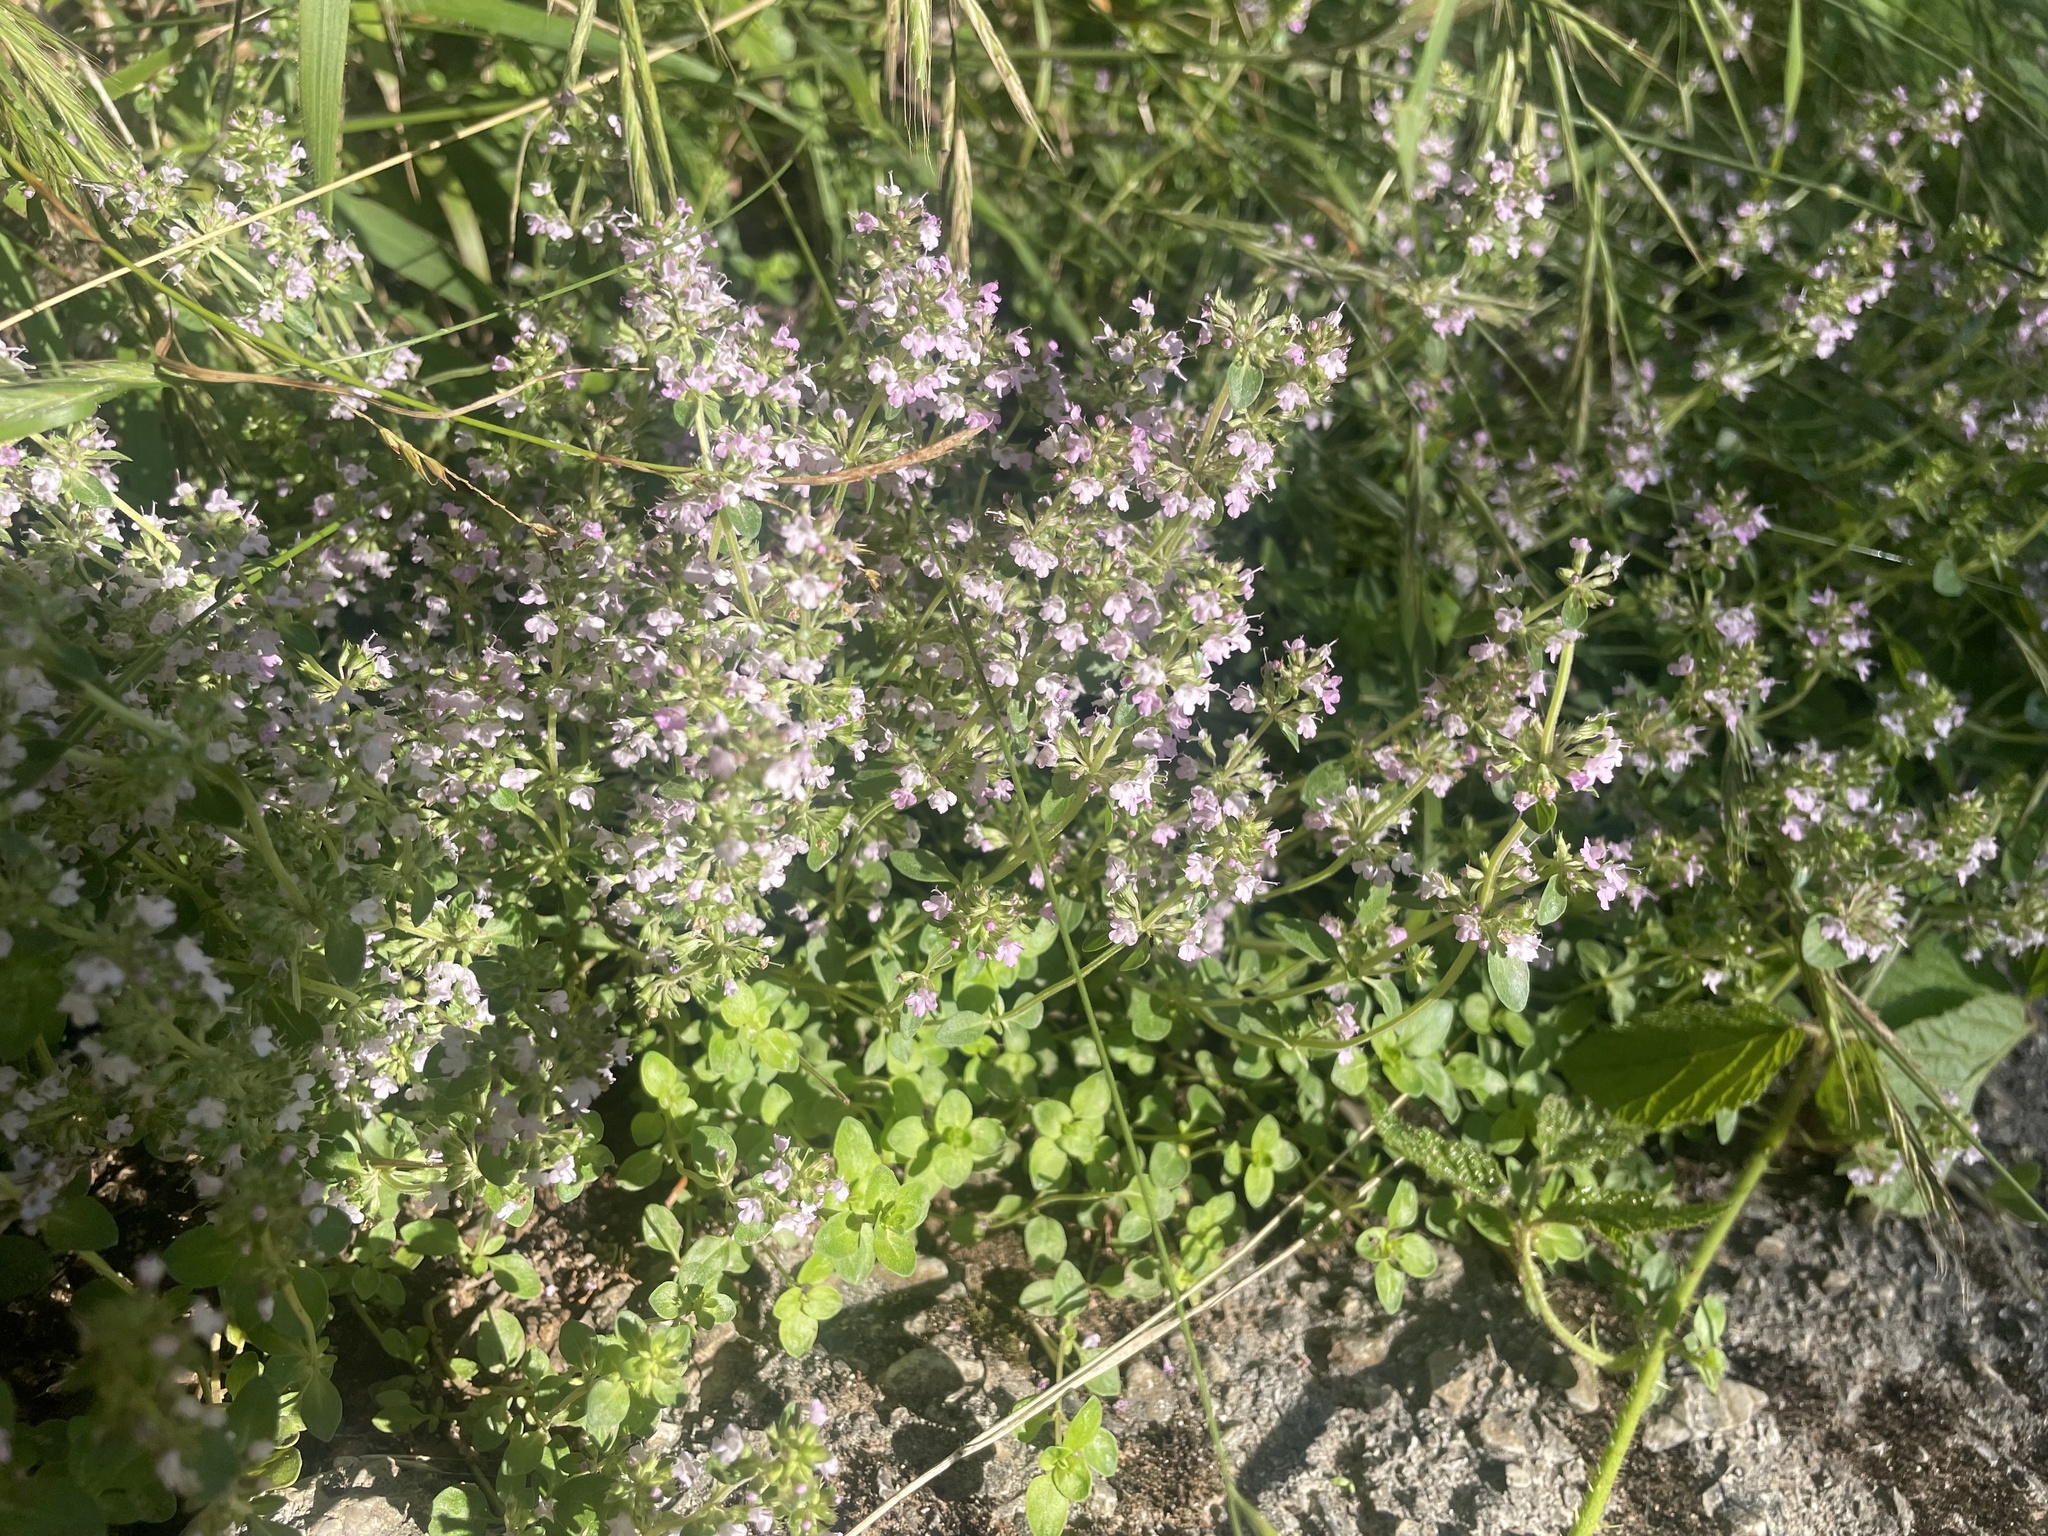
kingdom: Plantae
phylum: Tracheophyta
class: Magnoliopsida
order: Lamiales
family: Lamiaceae
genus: Thymus
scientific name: Thymus pulegioides
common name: Large thyme
